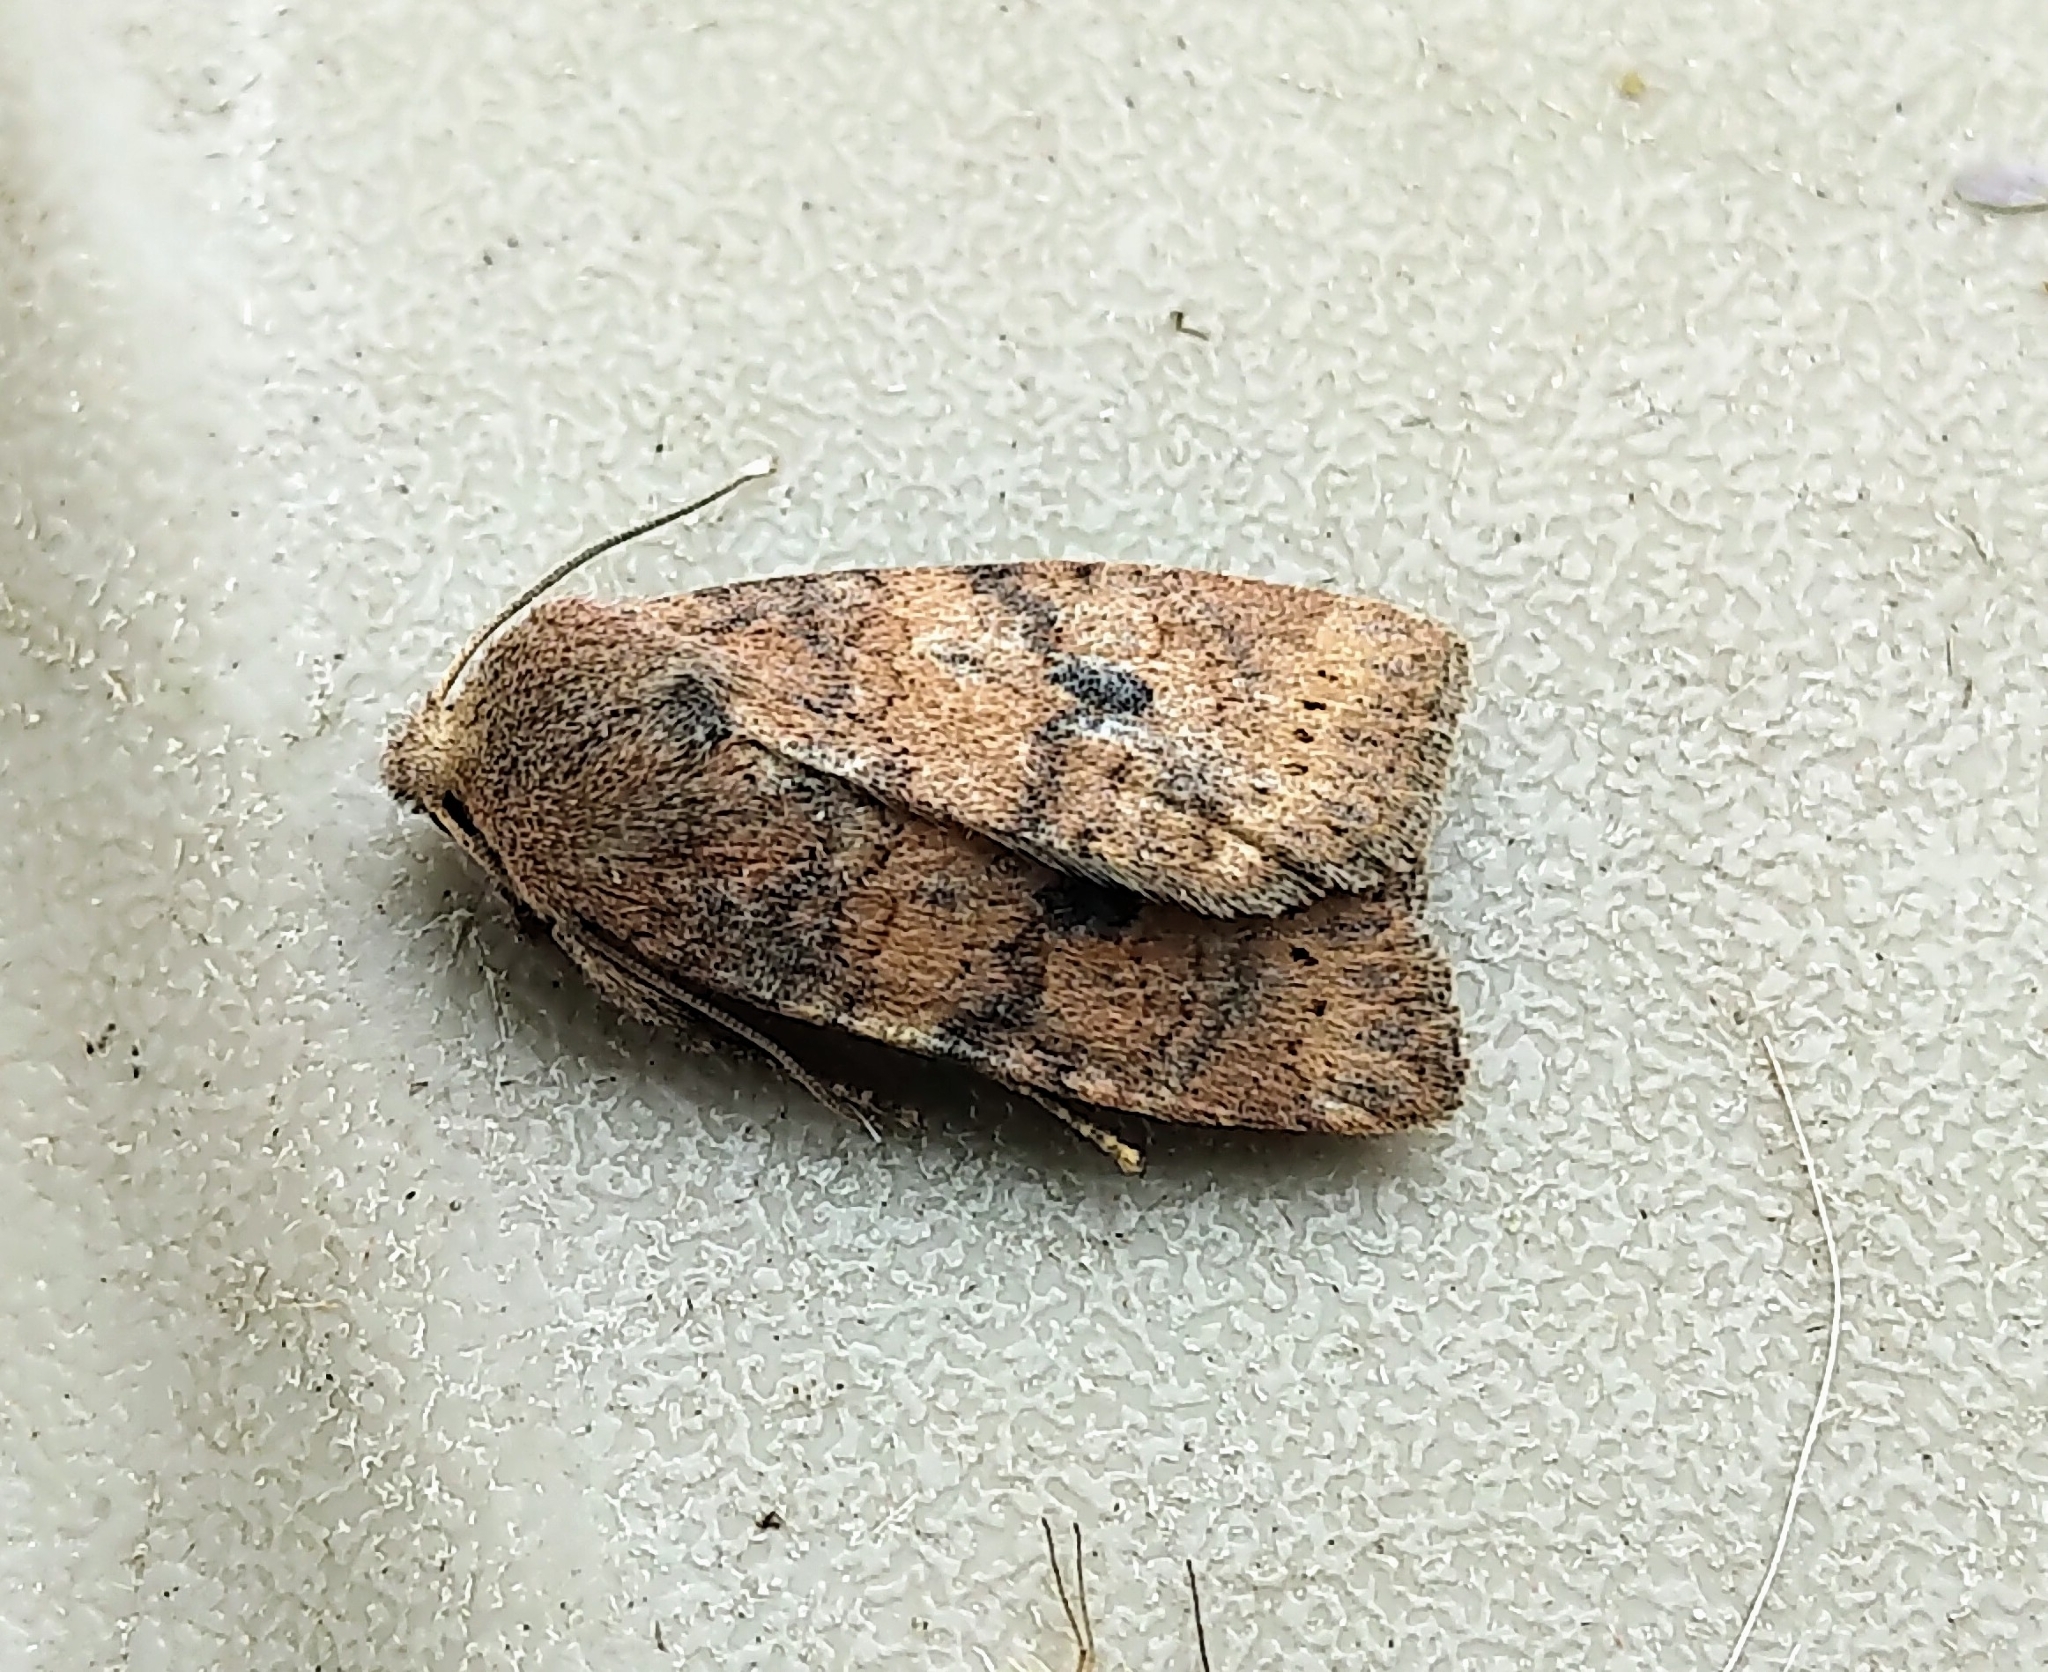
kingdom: Animalia
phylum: Arthropoda
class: Insecta
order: Lepidoptera
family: Noctuidae
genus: Anathix
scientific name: Anathix puta
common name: Puta sallow
